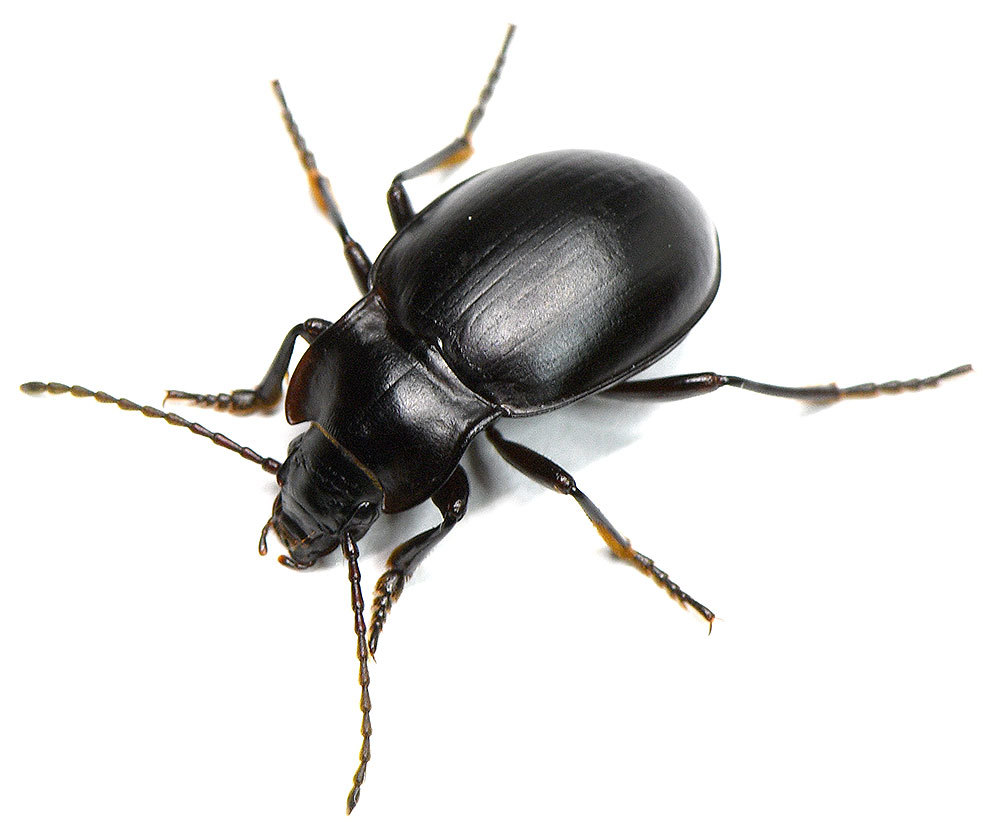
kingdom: Animalia
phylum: Arthropoda
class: Insecta
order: Coleoptera
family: Carabidae
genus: Metrius
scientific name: Metrius contractus
